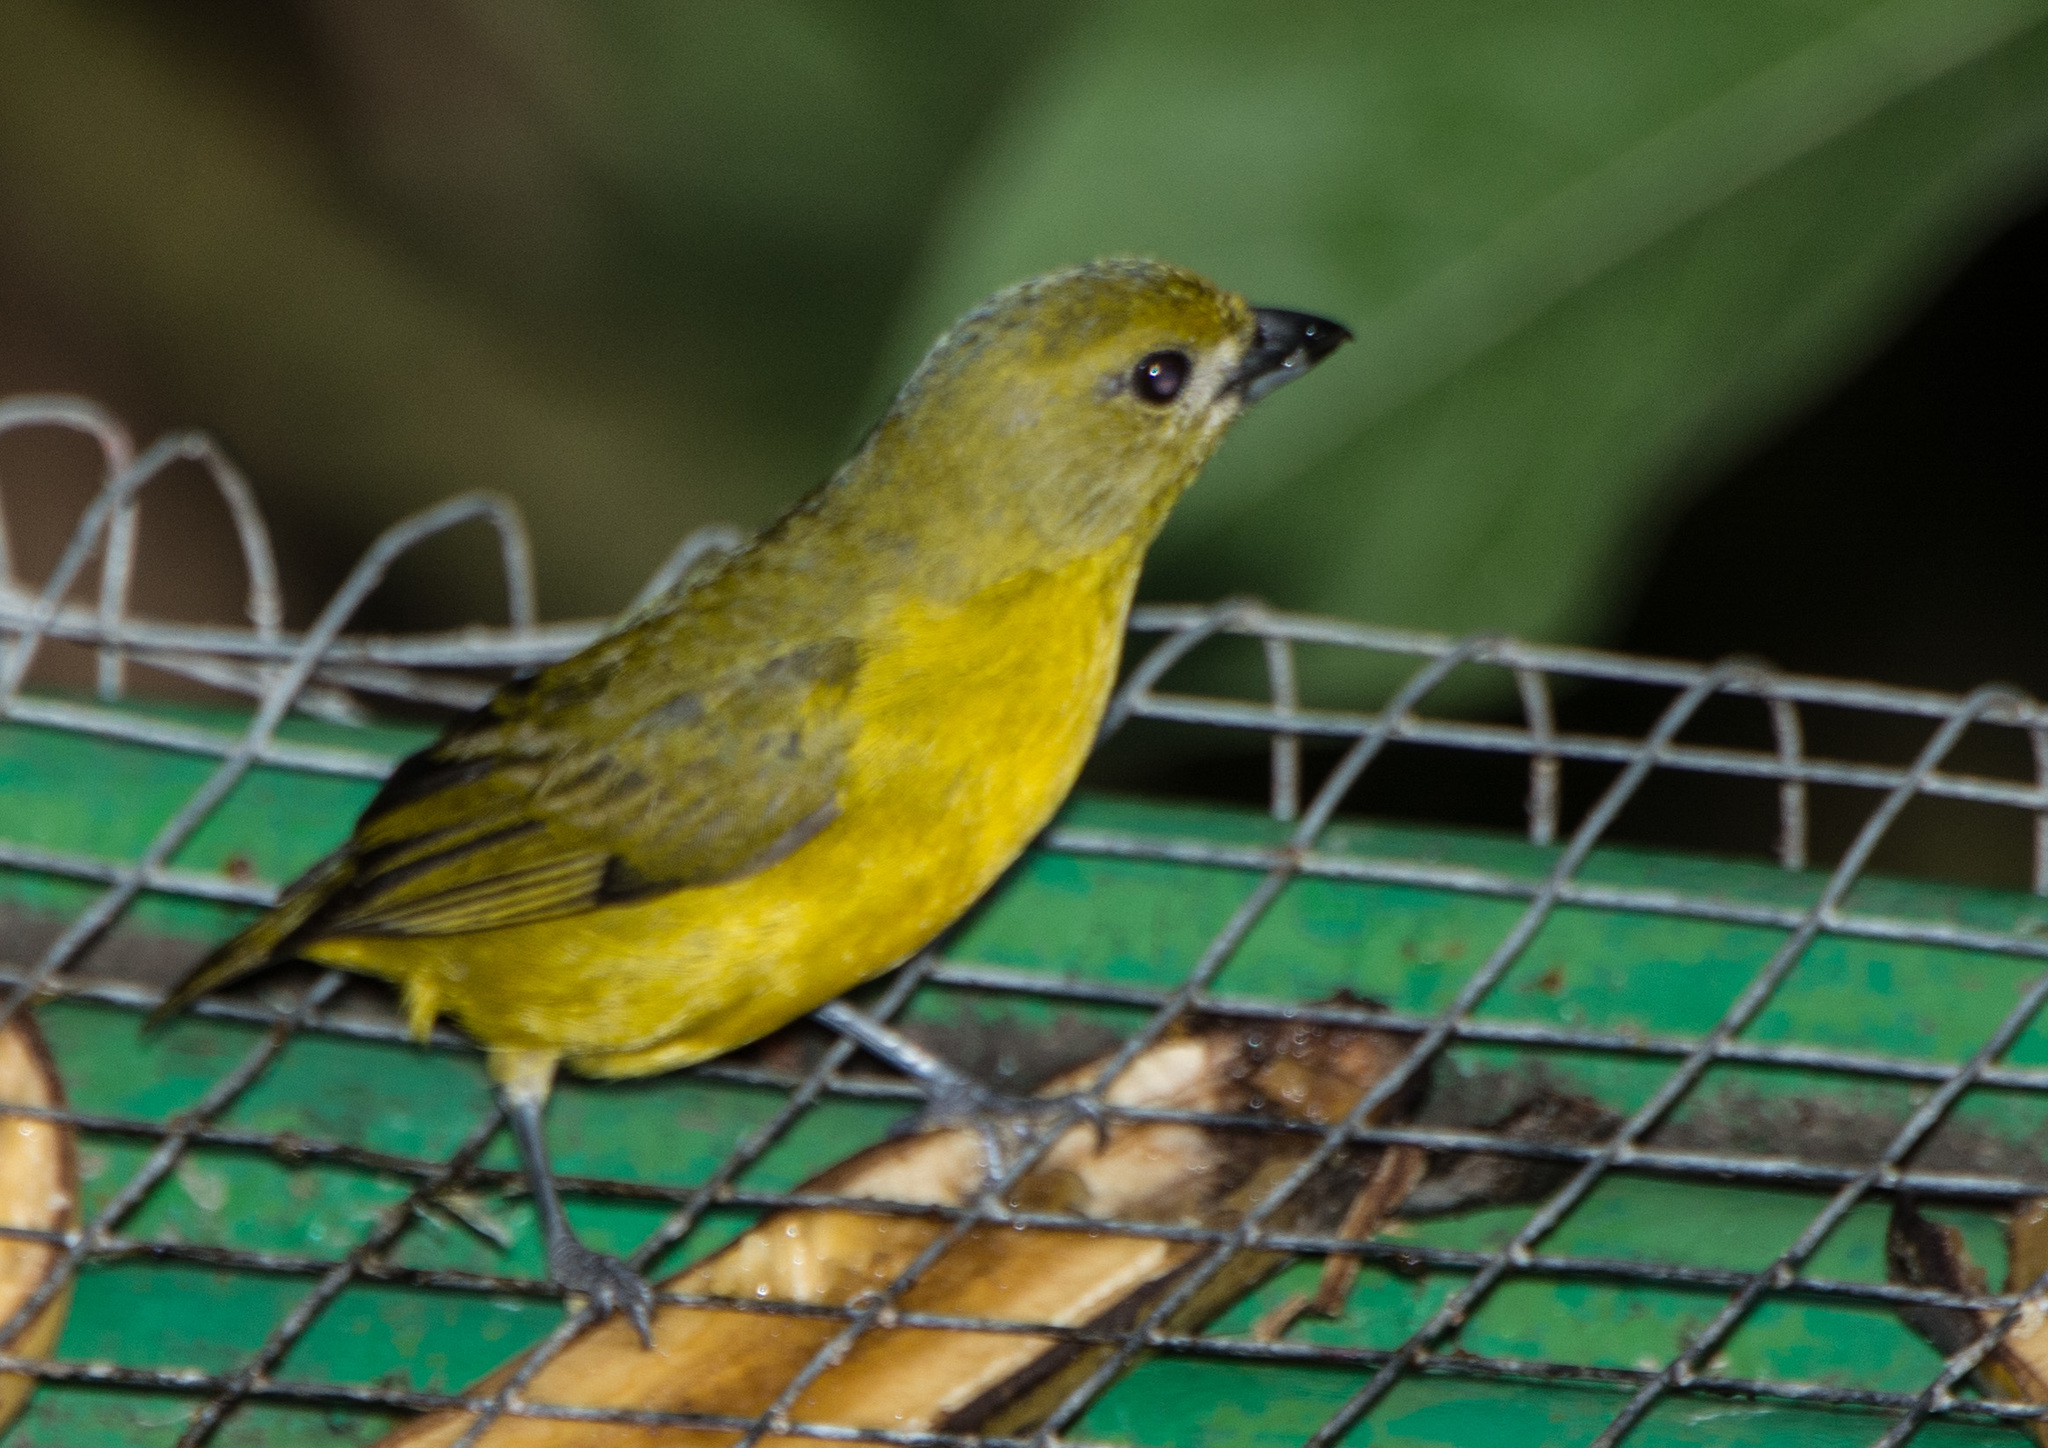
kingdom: Animalia
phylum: Chordata
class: Aves
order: Passeriformes
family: Fringillidae
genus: Euphonia
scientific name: Euphonia violacea
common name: Violaceous euphonia
